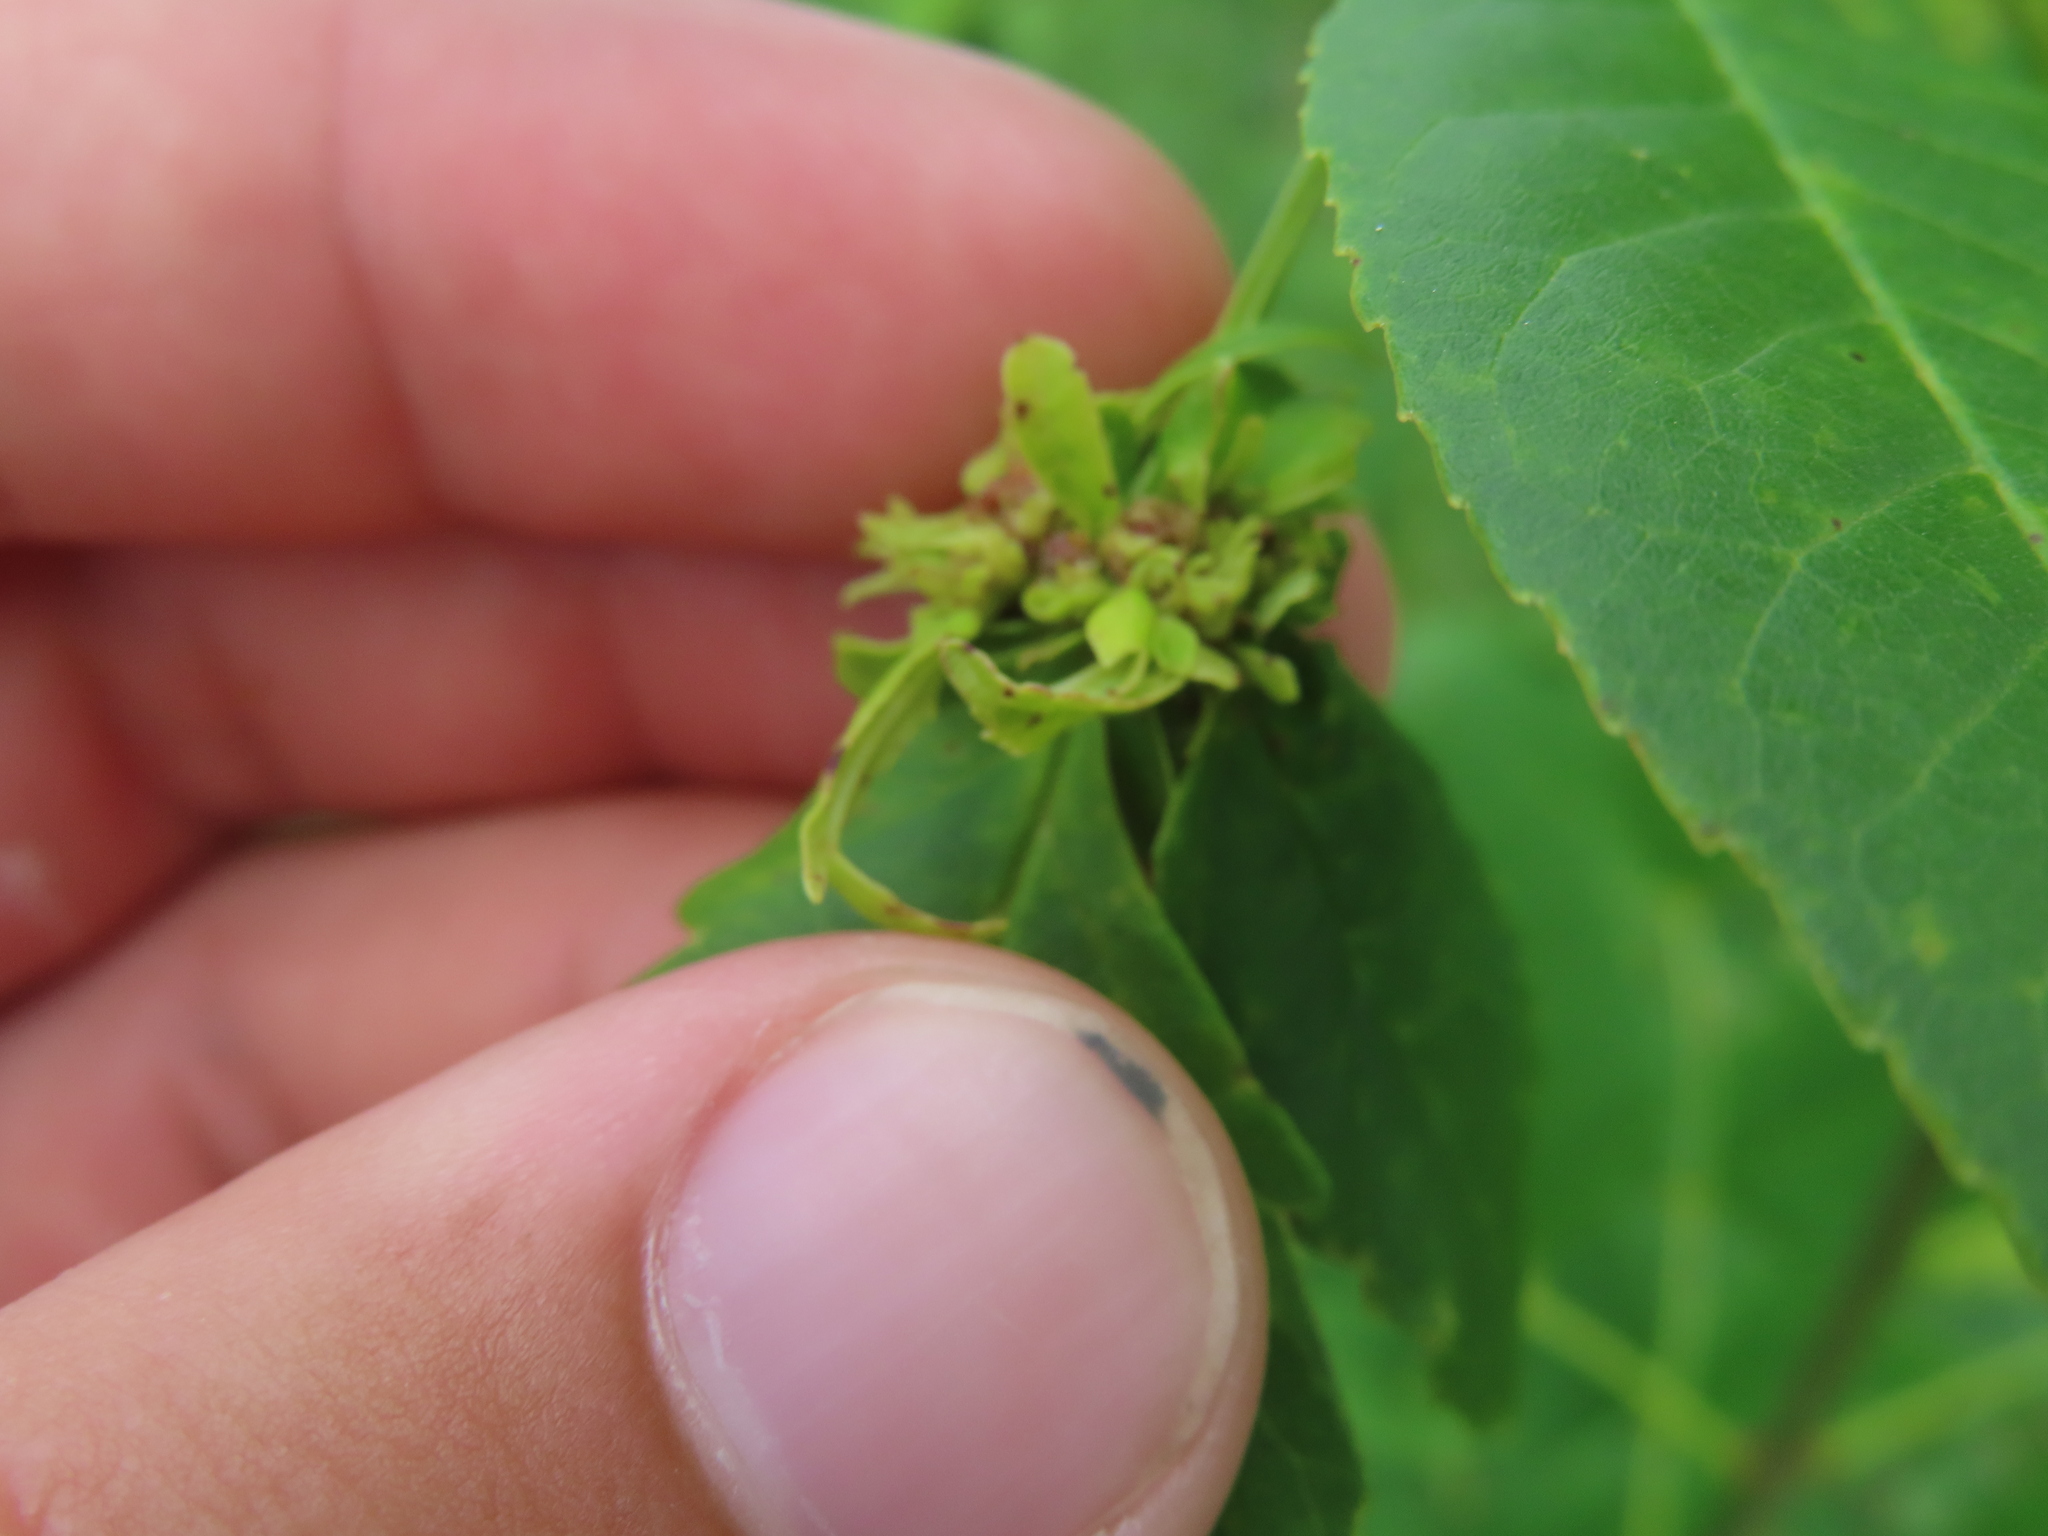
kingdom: Bacteria
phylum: Firmicutes
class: Bacilli
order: Acholeplasmatales
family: Acholeplasmataceae
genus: Phytoplasma
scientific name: Phytoplasma
